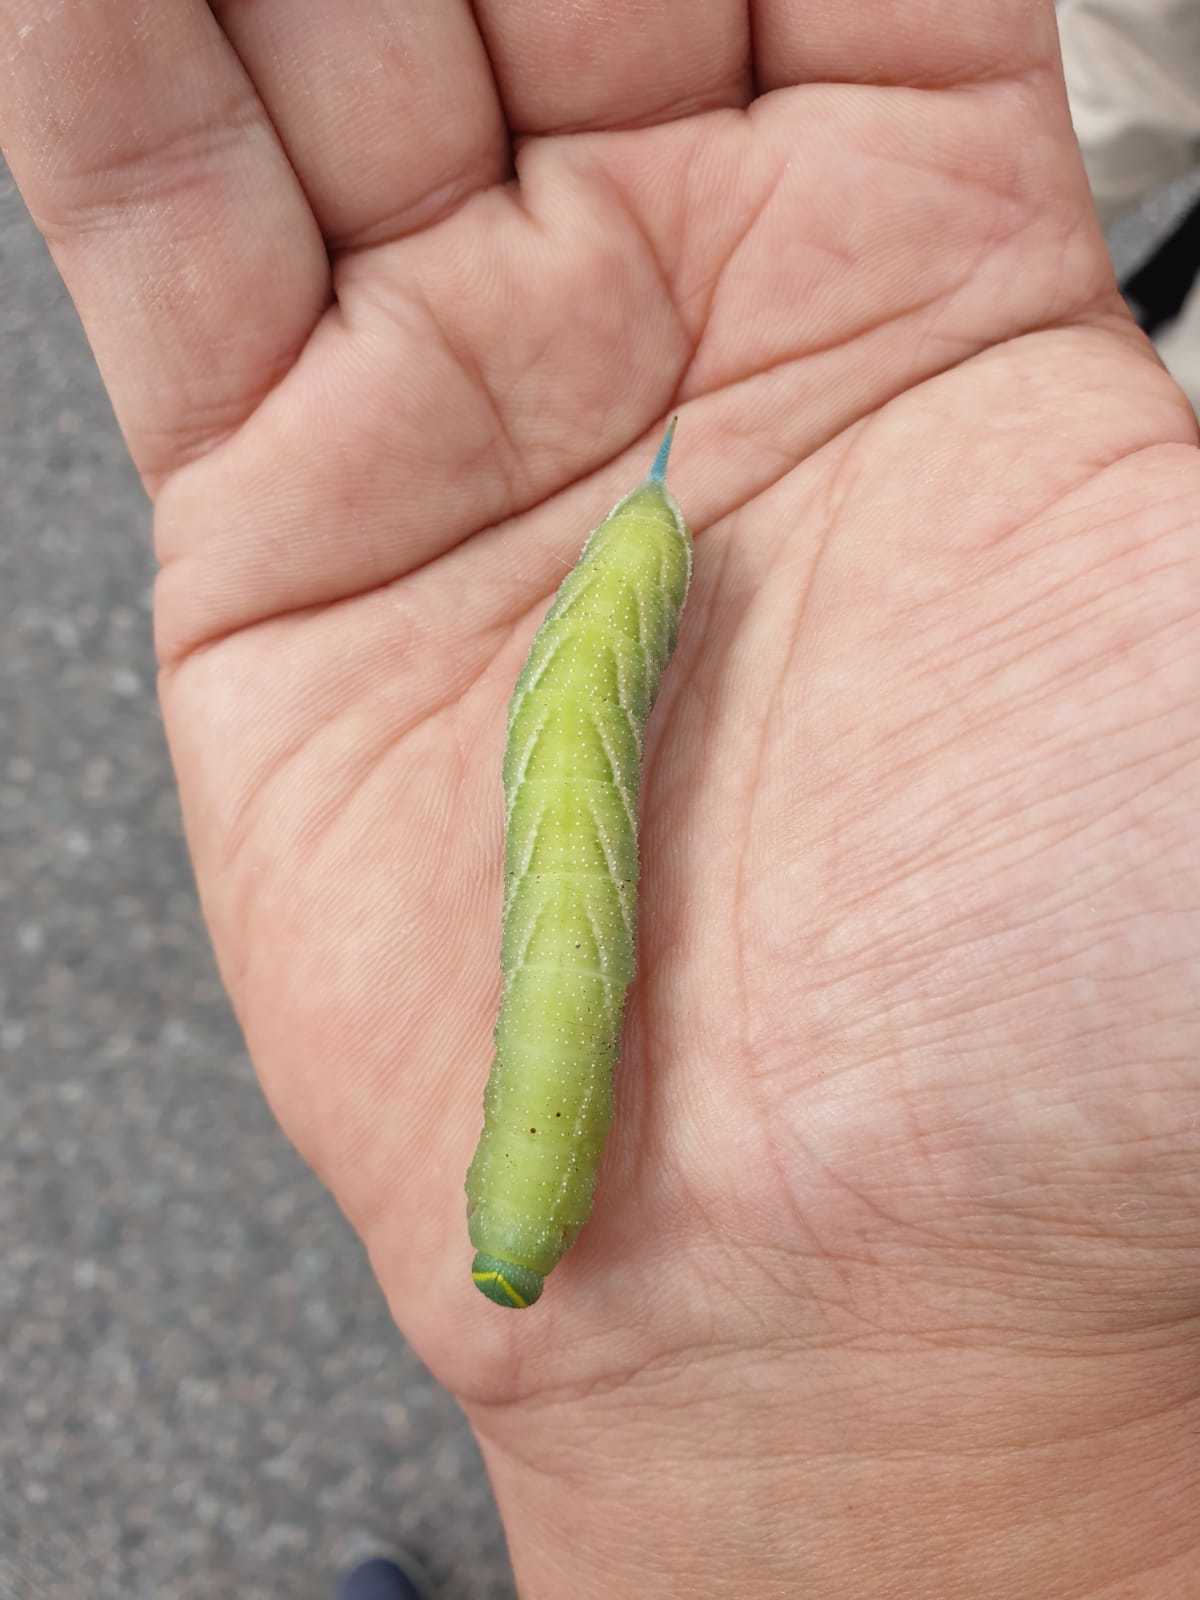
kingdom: Animalia
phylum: Arthropoda
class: Insecta
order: Lepidoptera
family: Sphingidae
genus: Smerinthus
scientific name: Smerinthus ocellata
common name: Eyed hawk-moth
